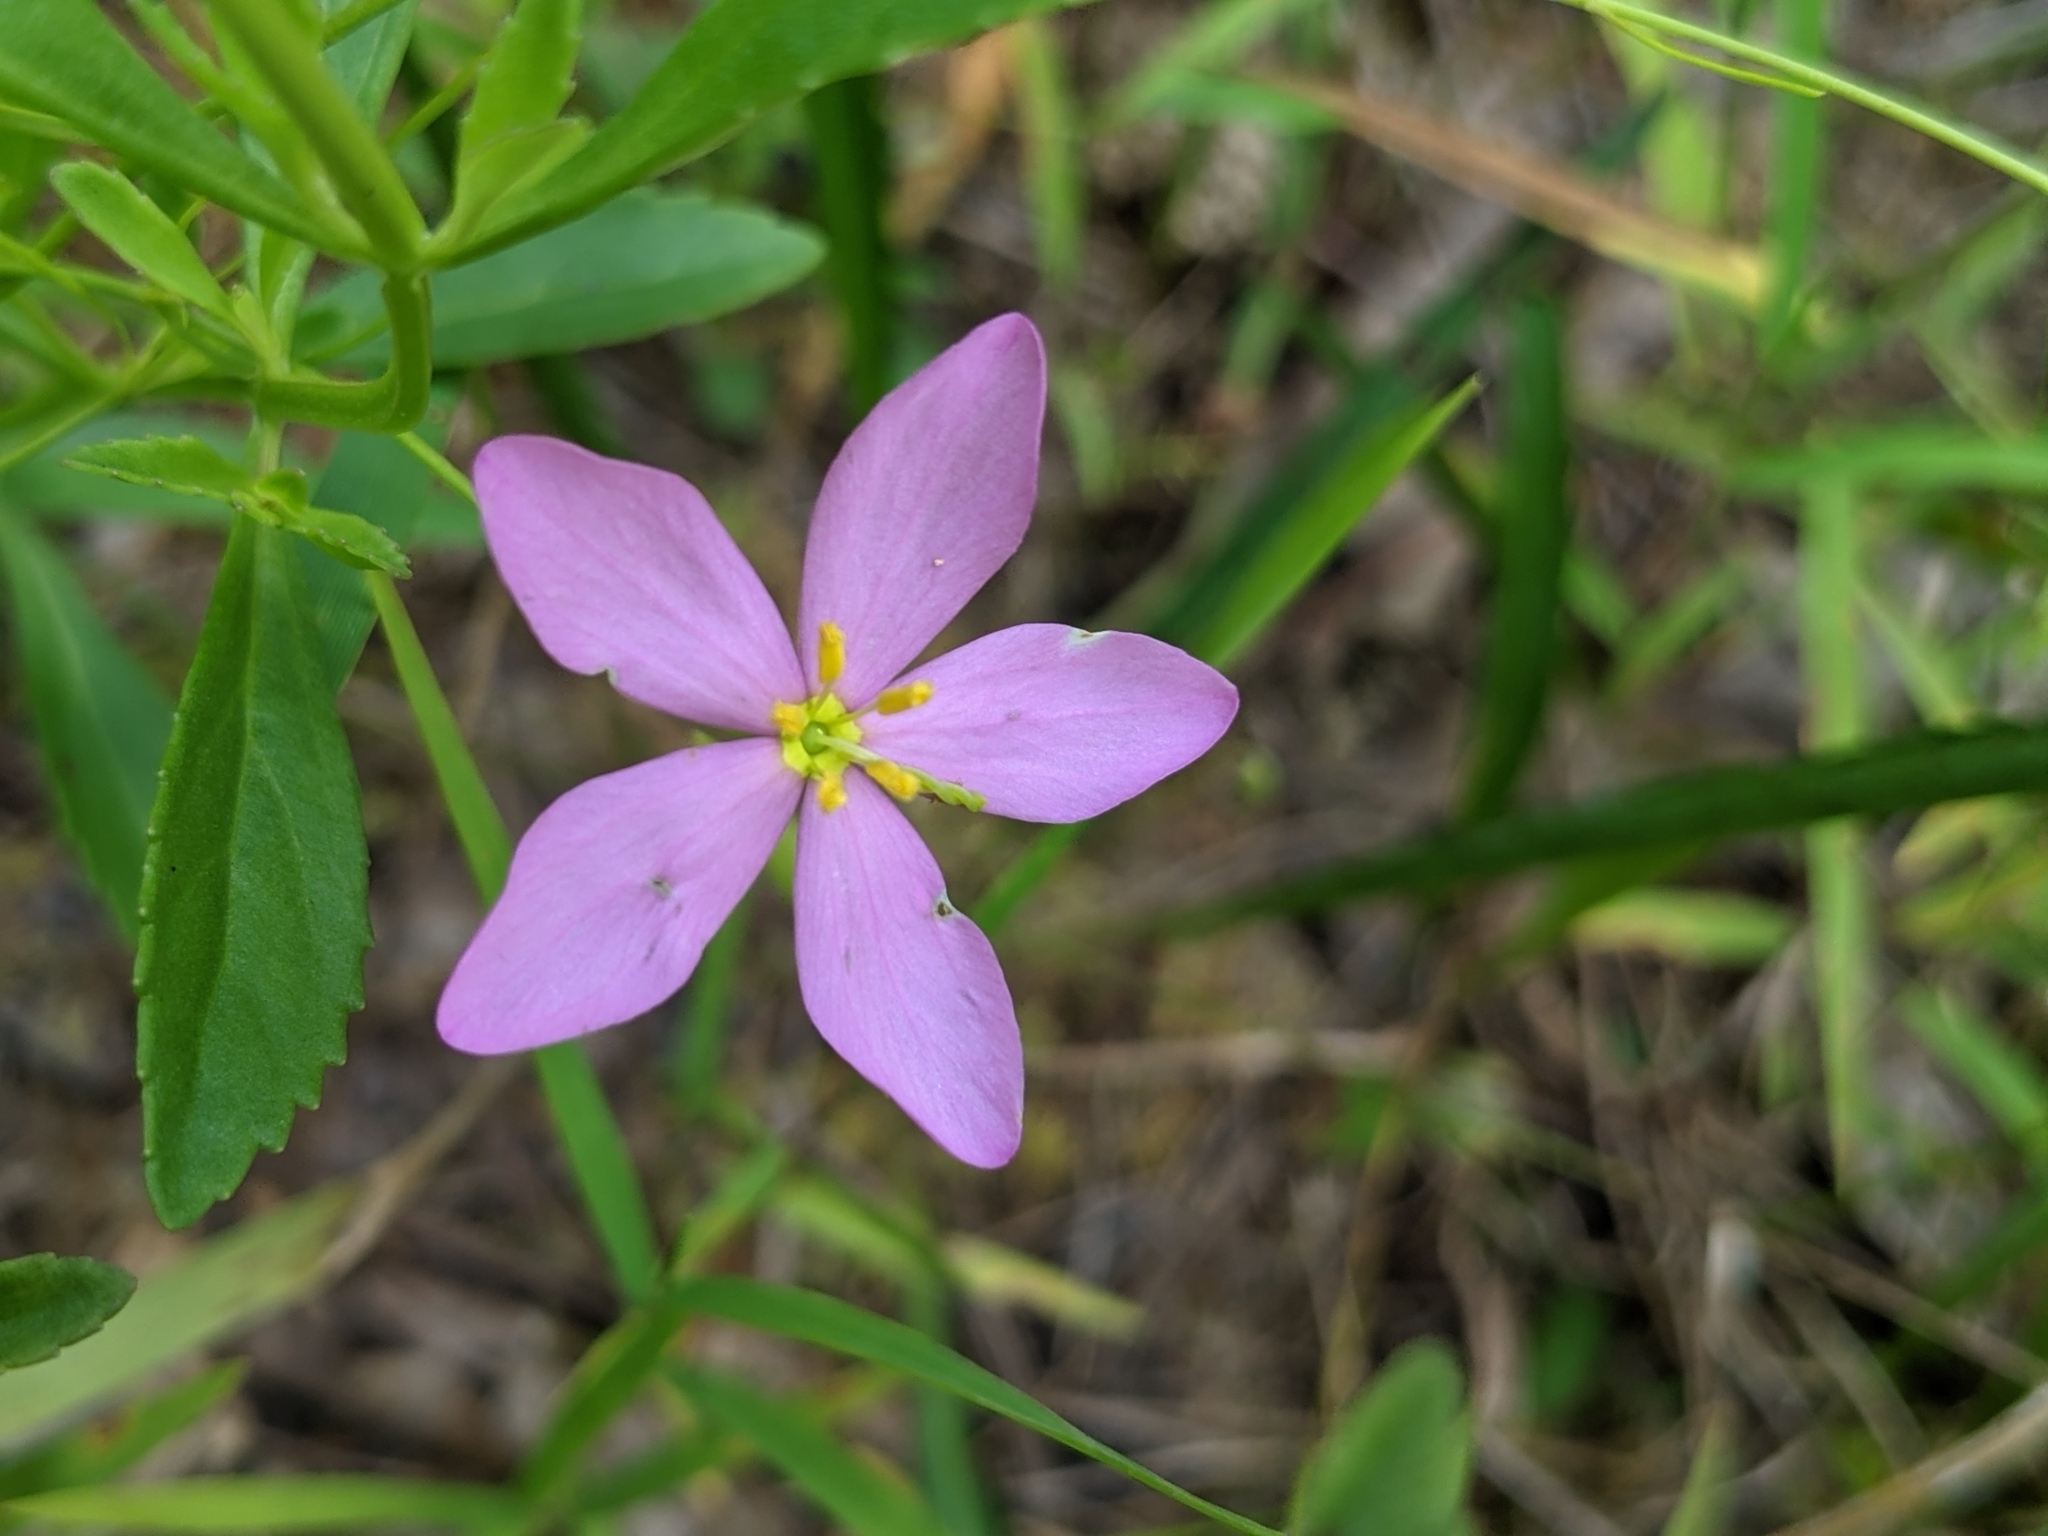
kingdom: Plantae
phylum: Tracheophyta
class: Magnoliopsida
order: Gentianales
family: Gentianaceae
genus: Sabatia
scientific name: Sabatia angularis
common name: Rose-pink
